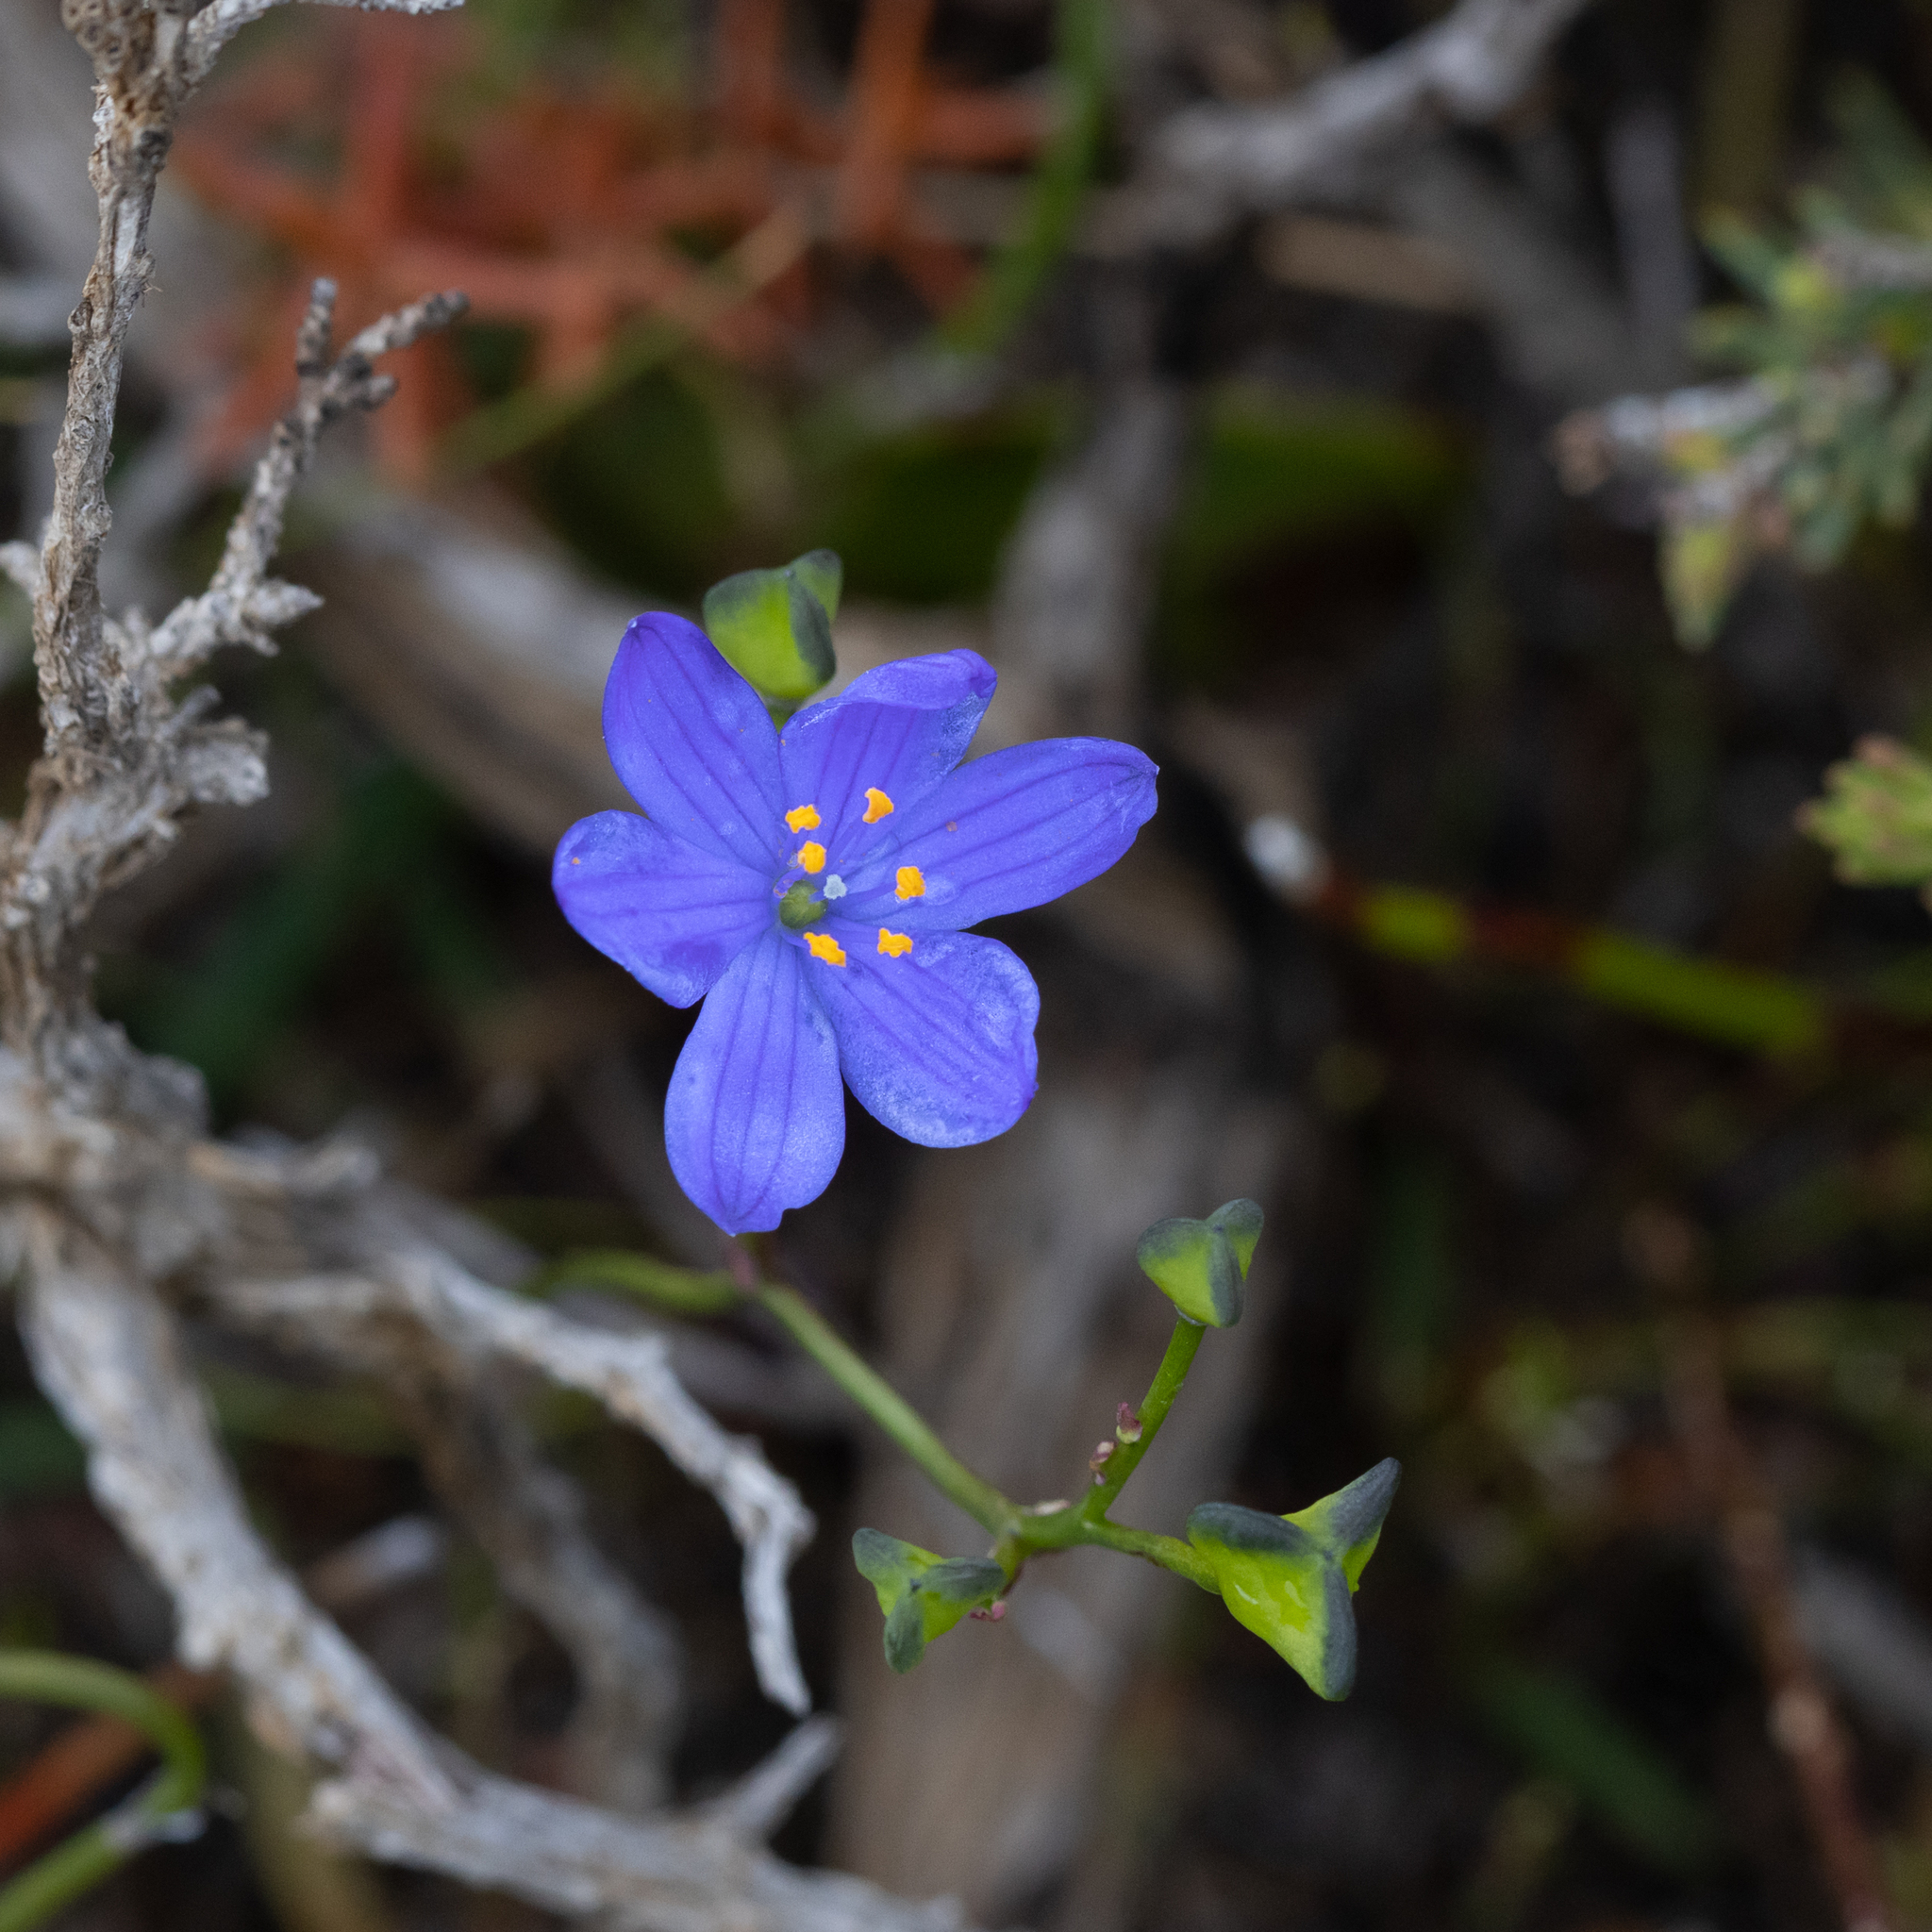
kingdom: Plantae
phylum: Tracheophyta
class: Liliopsida
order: Asparagales
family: Asphodelaceae
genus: Chamaescilla
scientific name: Chamaescilla corymbosa
